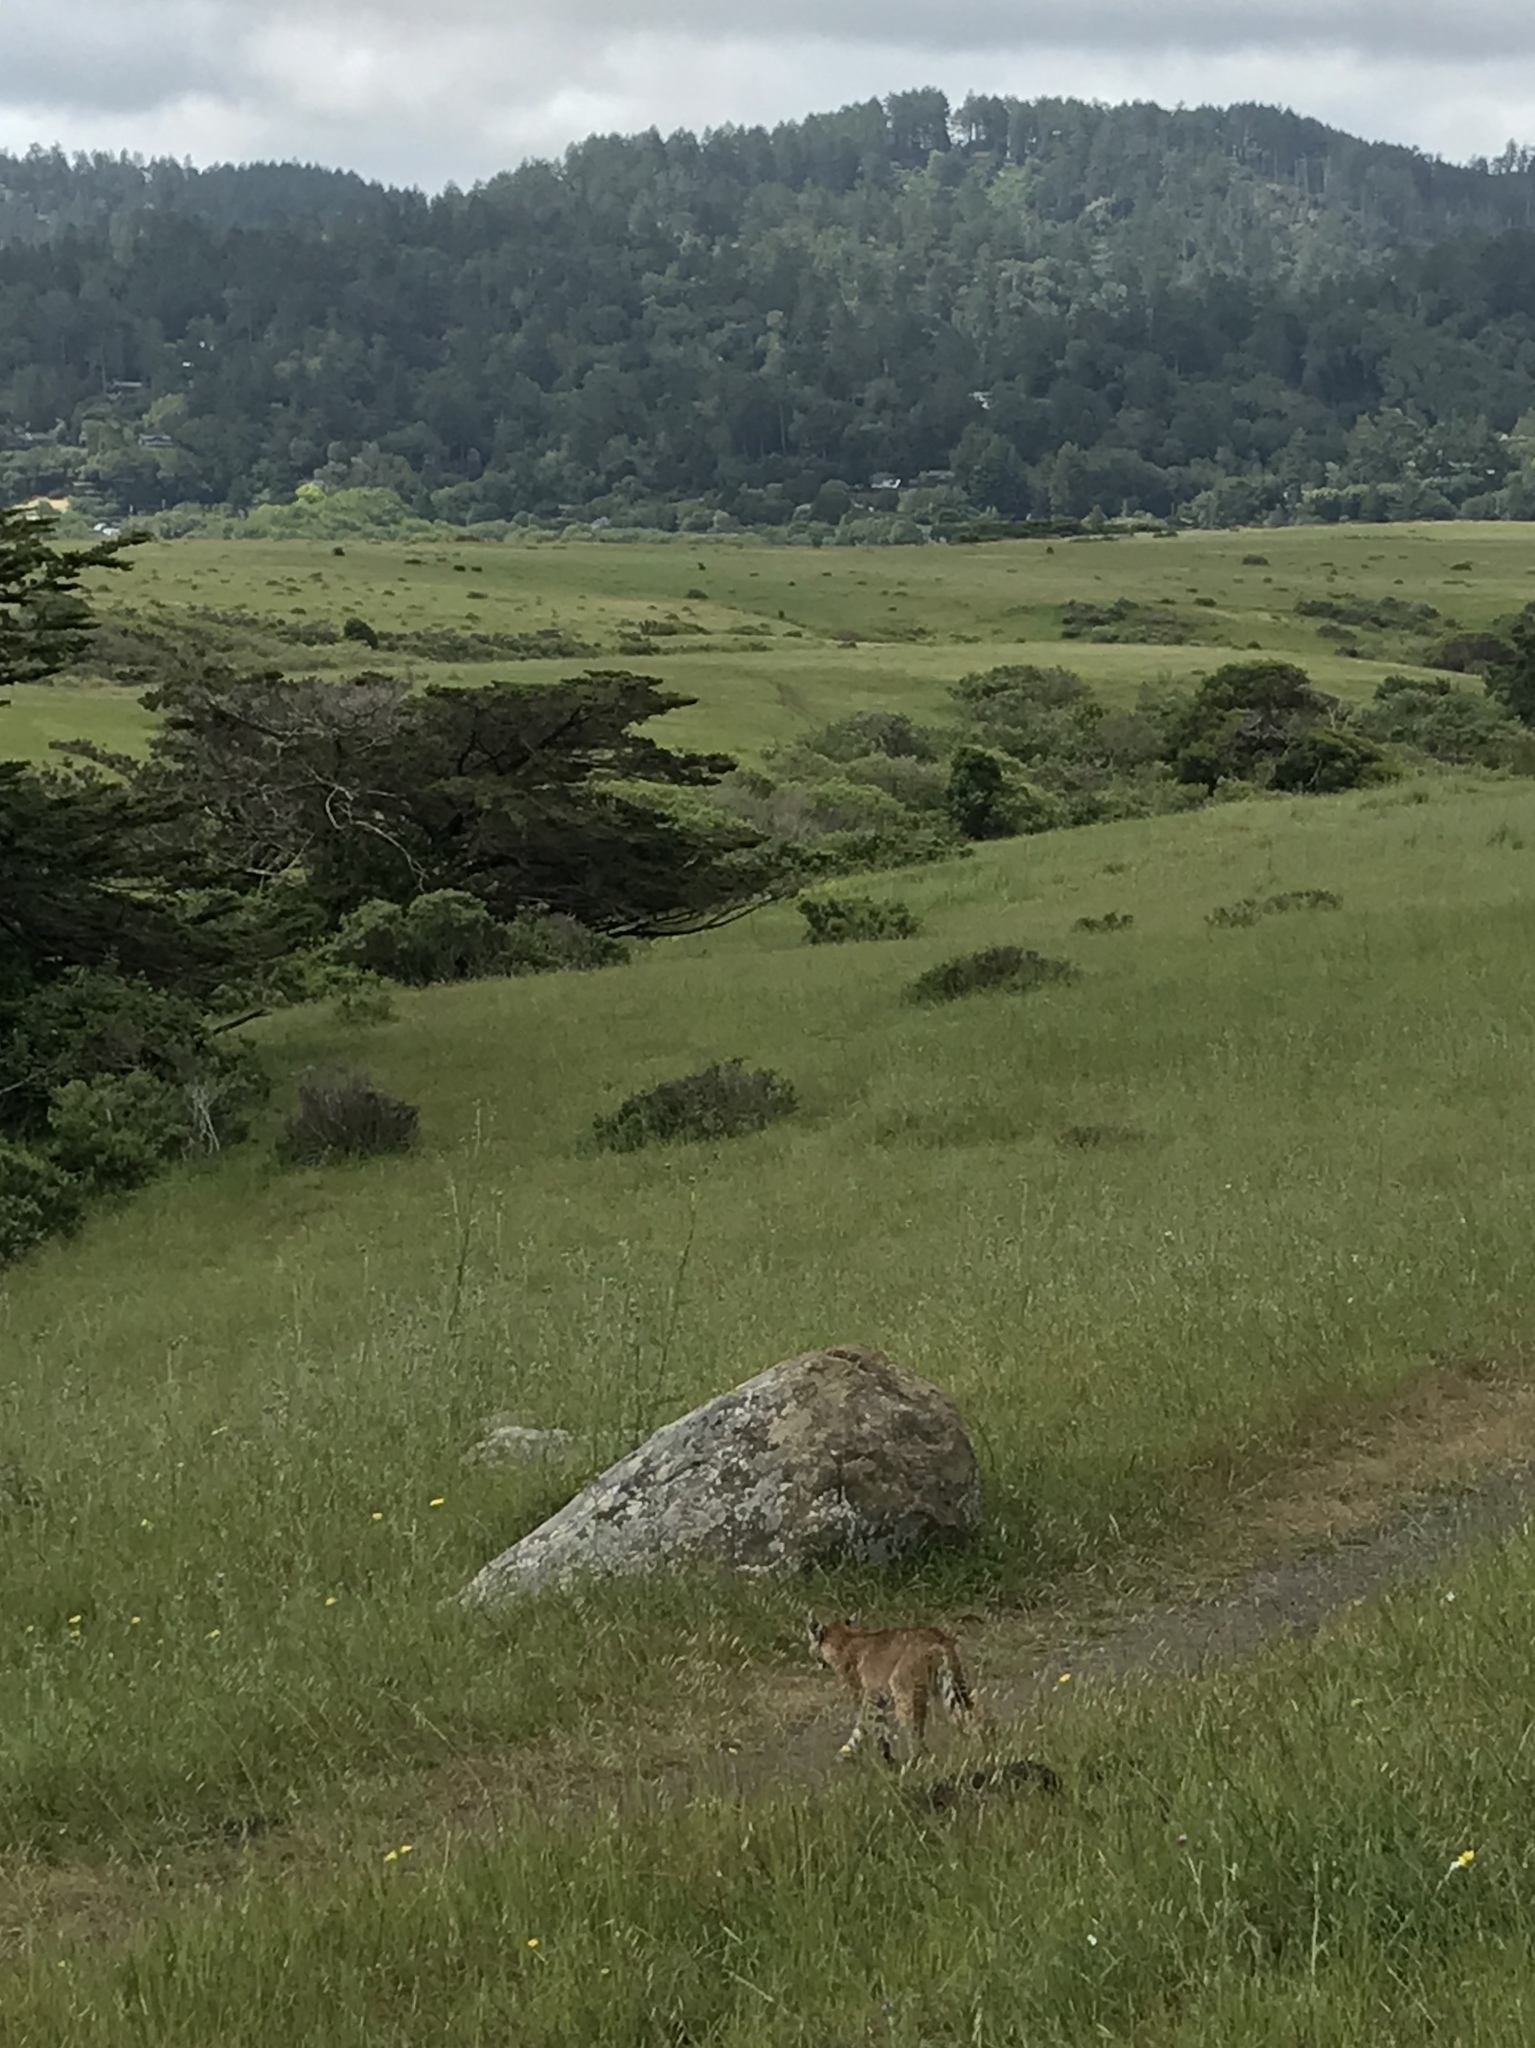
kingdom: Animalia
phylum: Chordata
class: Mammalia
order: Carnivora
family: Felidae
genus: Lynx
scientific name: Lynx rufus
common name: Bobcat
